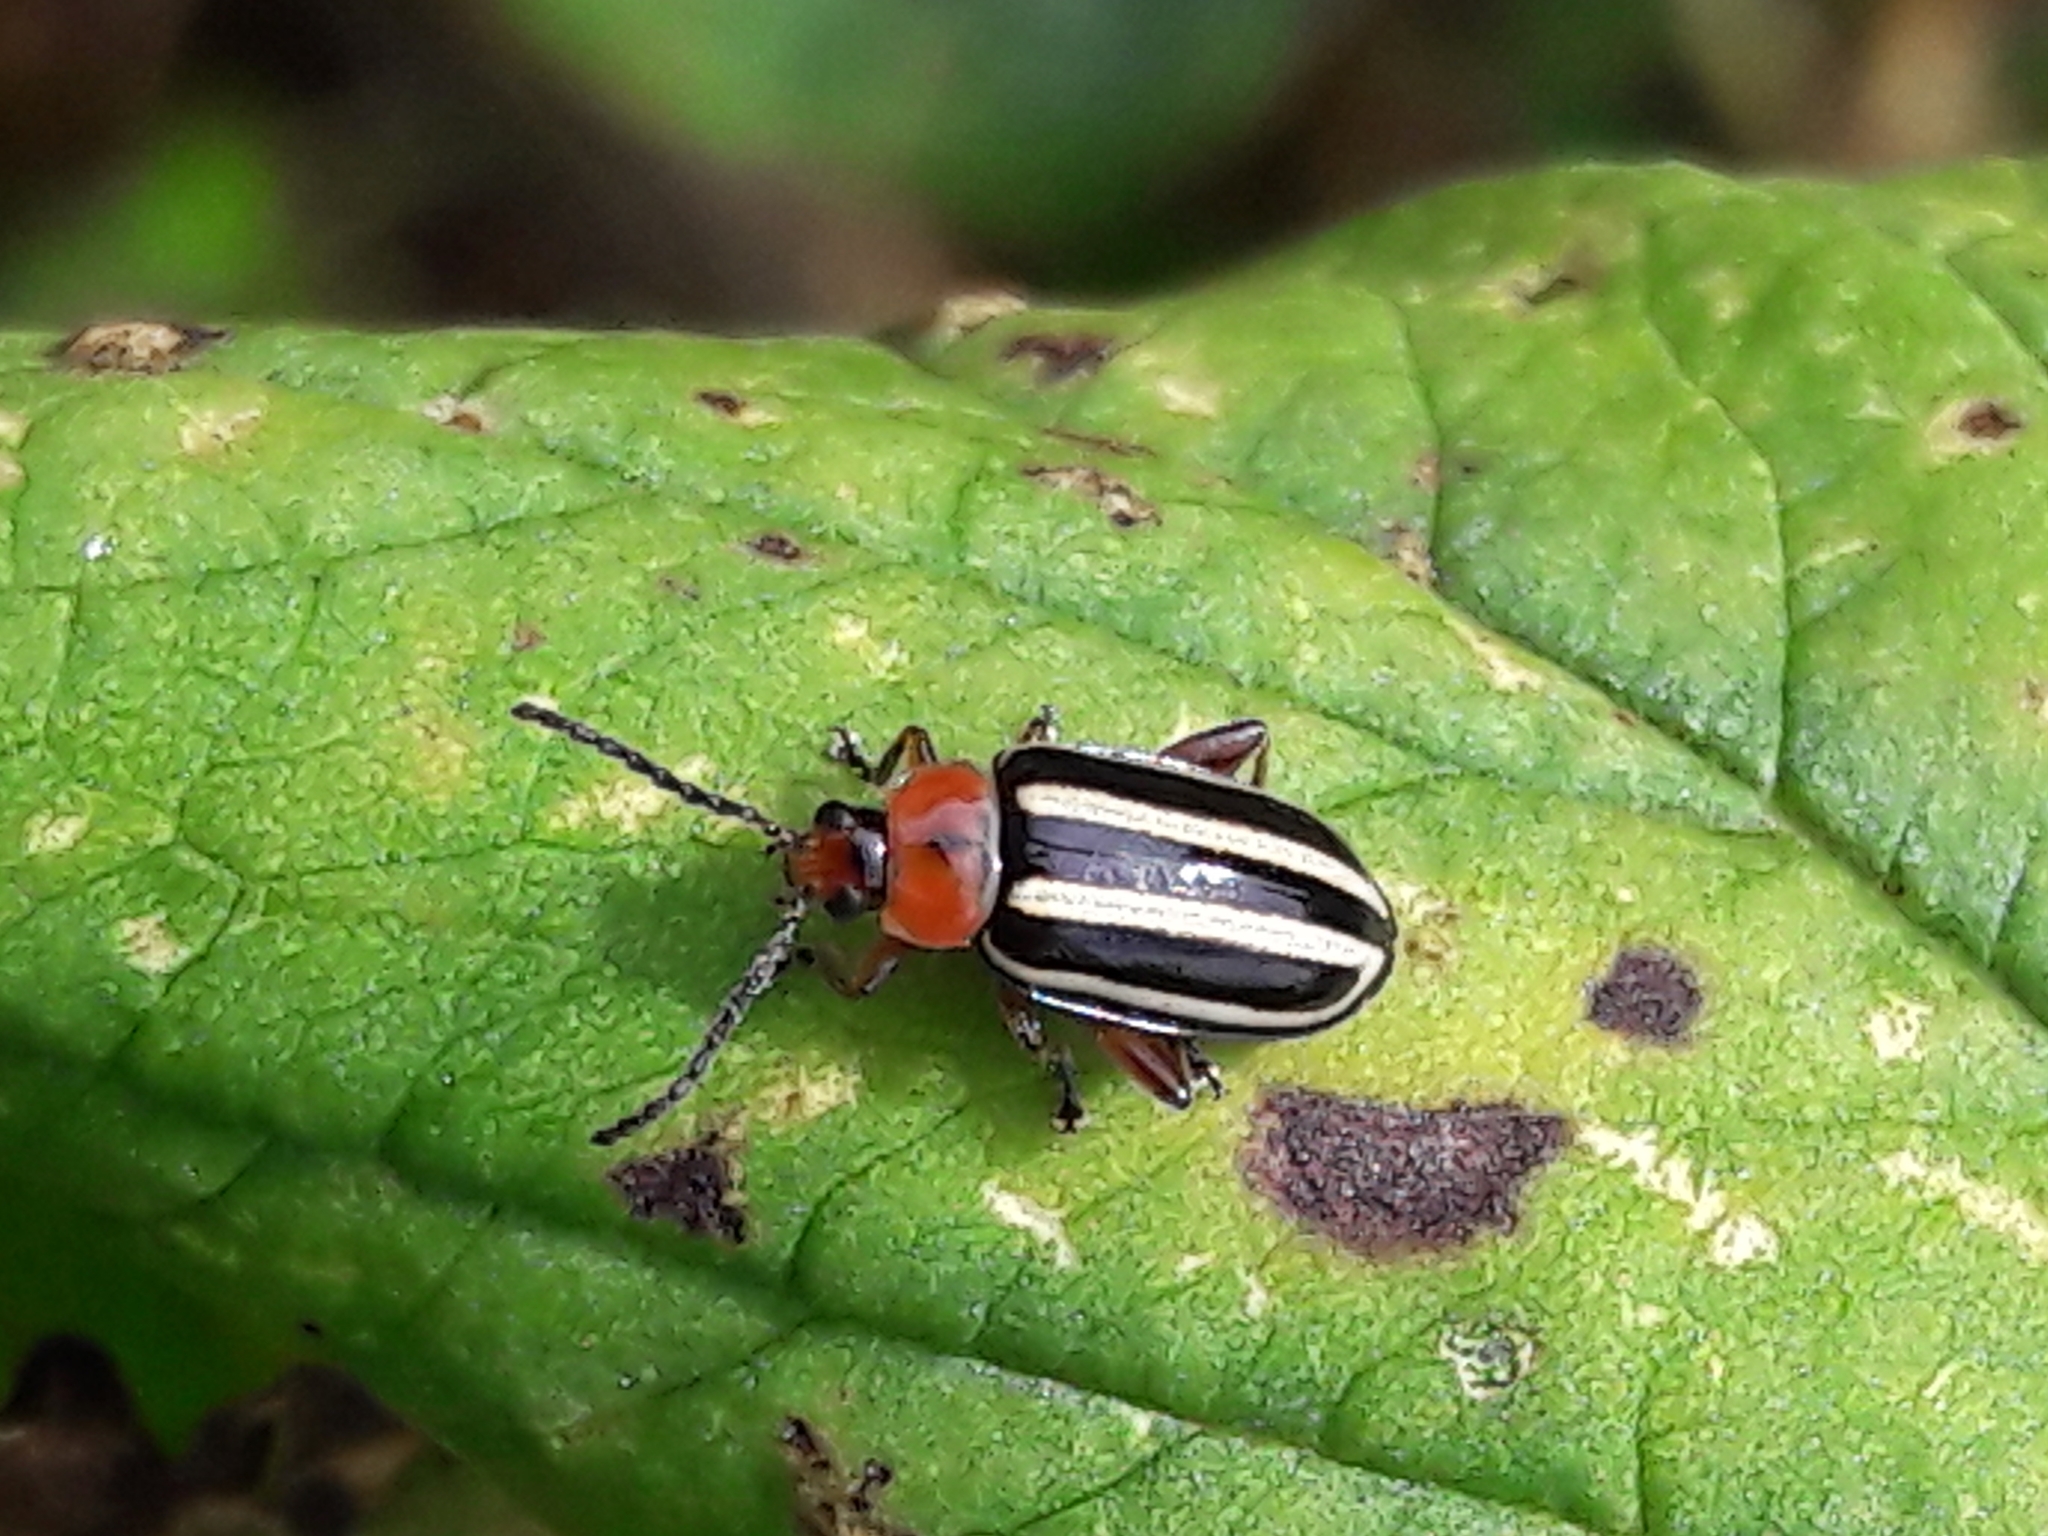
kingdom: Animalia
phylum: Arthropoda
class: Insecta
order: Coleoptera
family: Chrysomelidae
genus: Disonycha
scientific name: Disonycha glabrata
